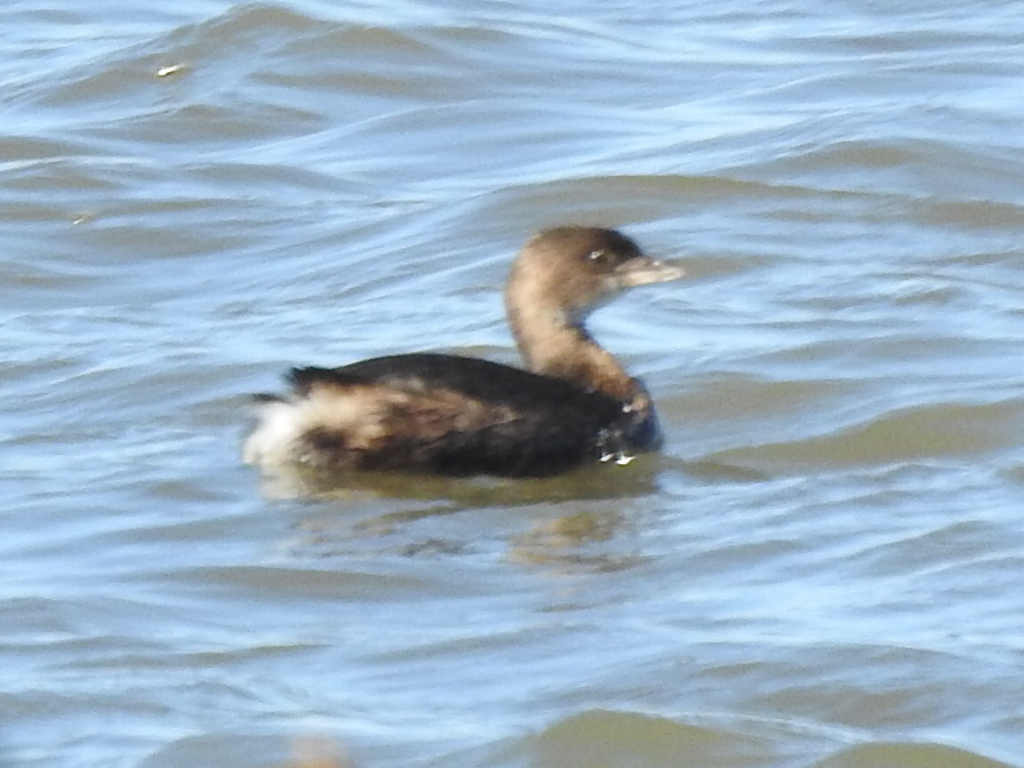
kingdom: Animalia
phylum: Chordata
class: Aves
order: Podicipediformes
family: Podicipedidae
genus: Podilymbus
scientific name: Podilymbus podiceps
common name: Pied-billed grebe
